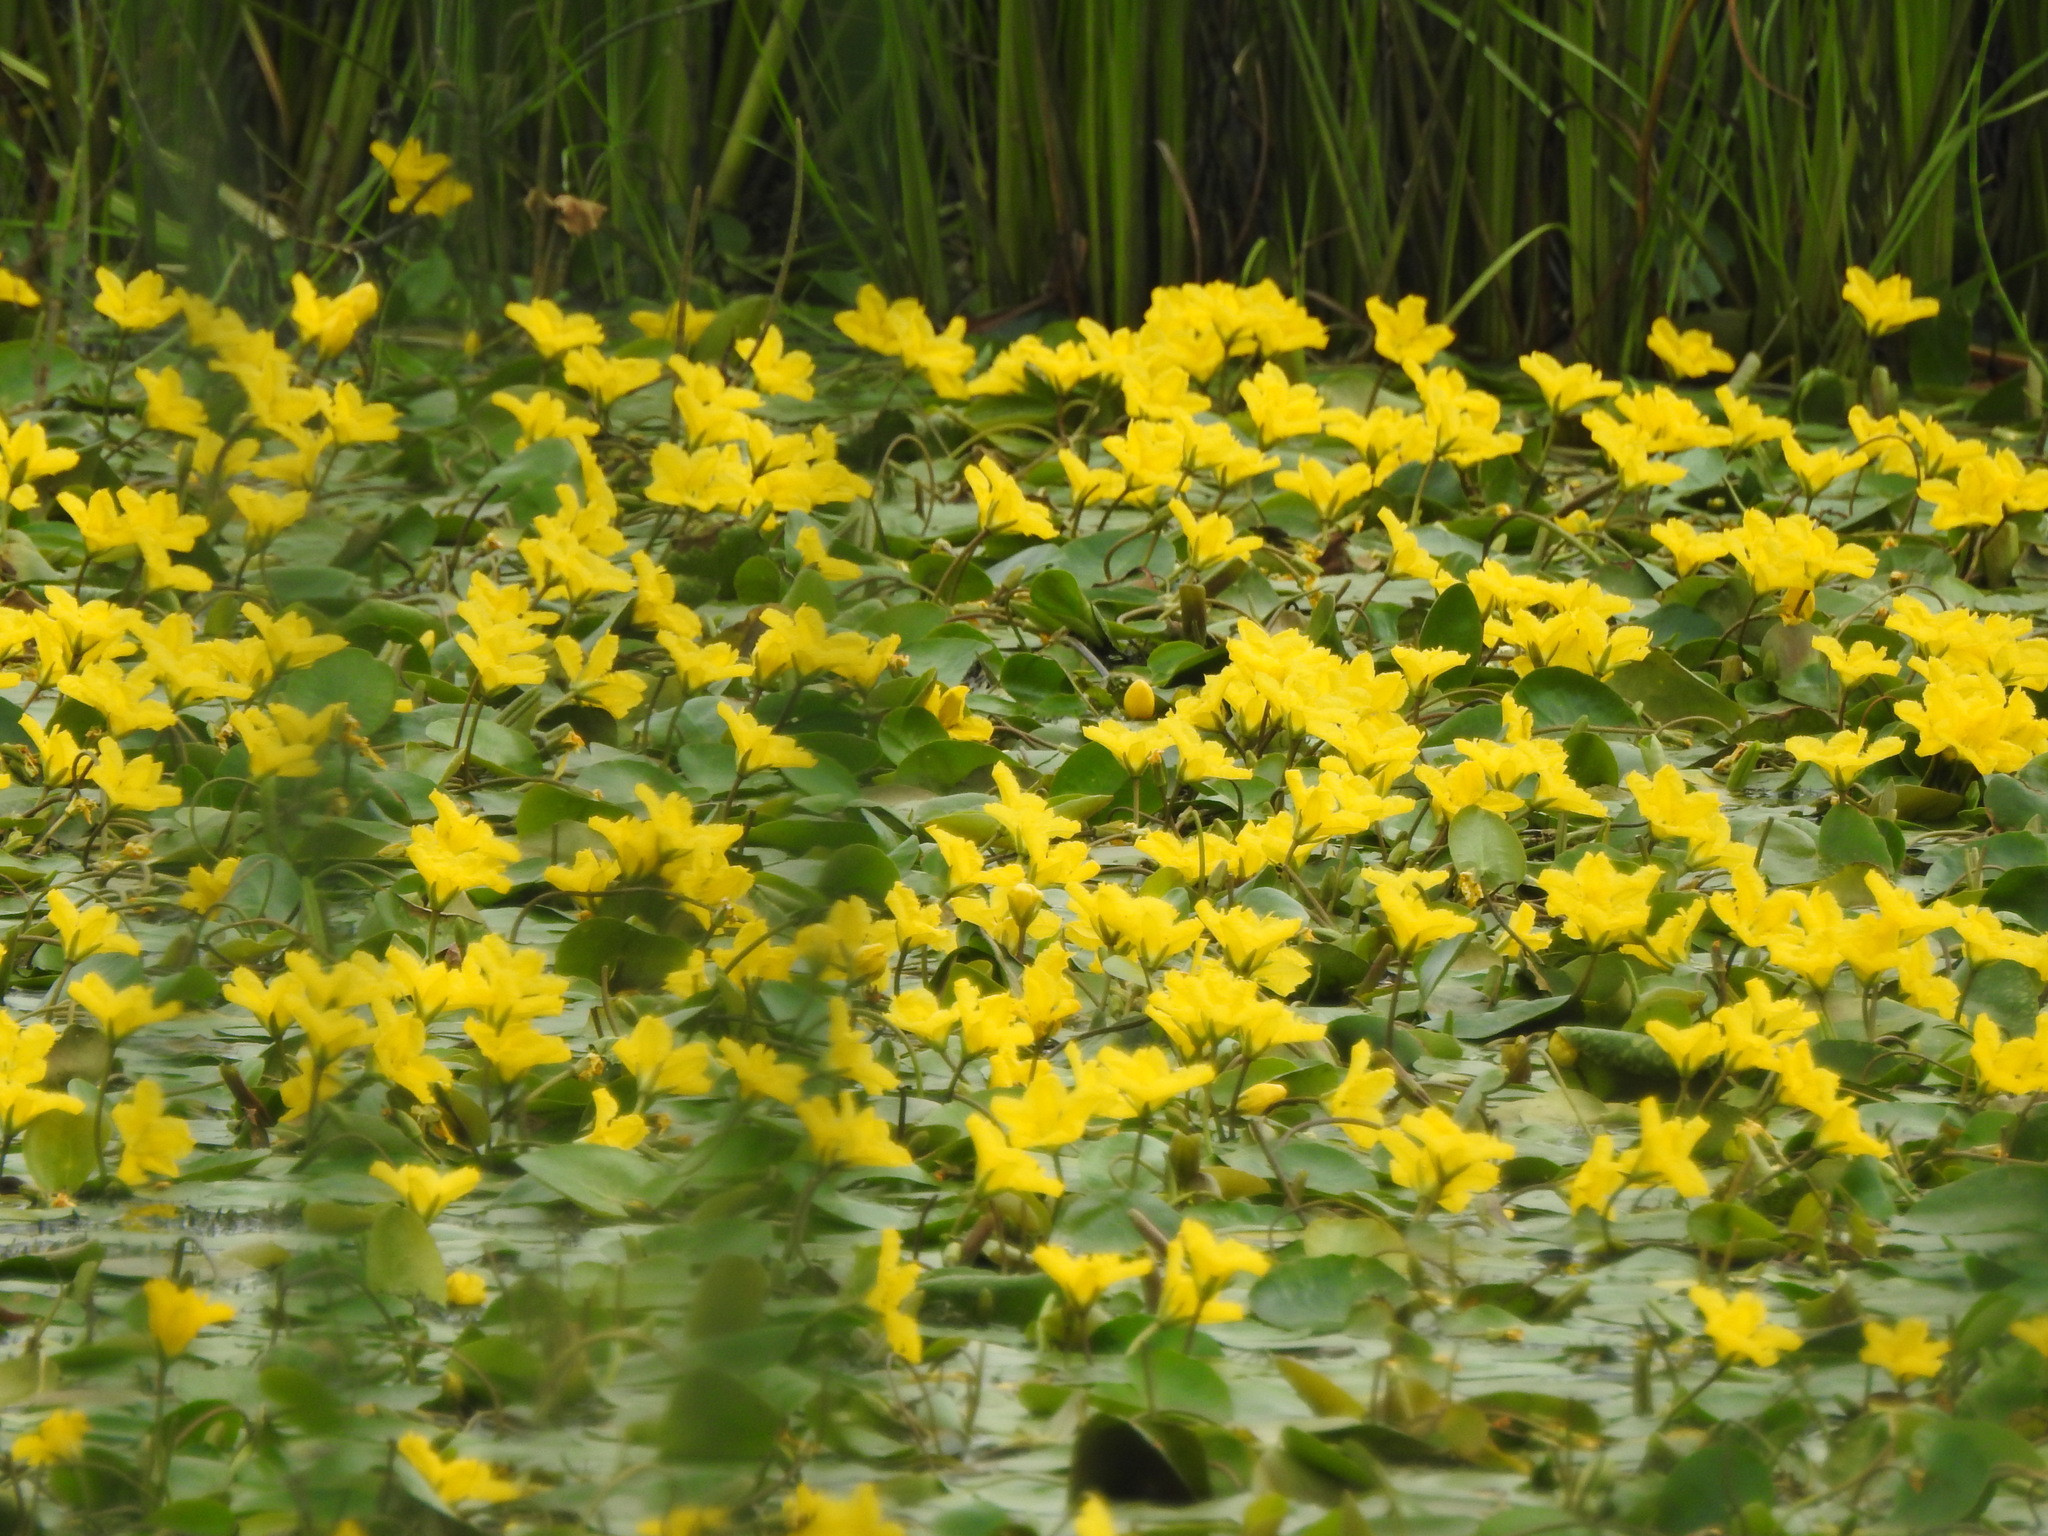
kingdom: Plantae
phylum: Tracheophyta
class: Magnoliopsida
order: Asterales
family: Menyanthaceae
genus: Nymphoides
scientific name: Nymphoides peltata
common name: Fringed water-lily
